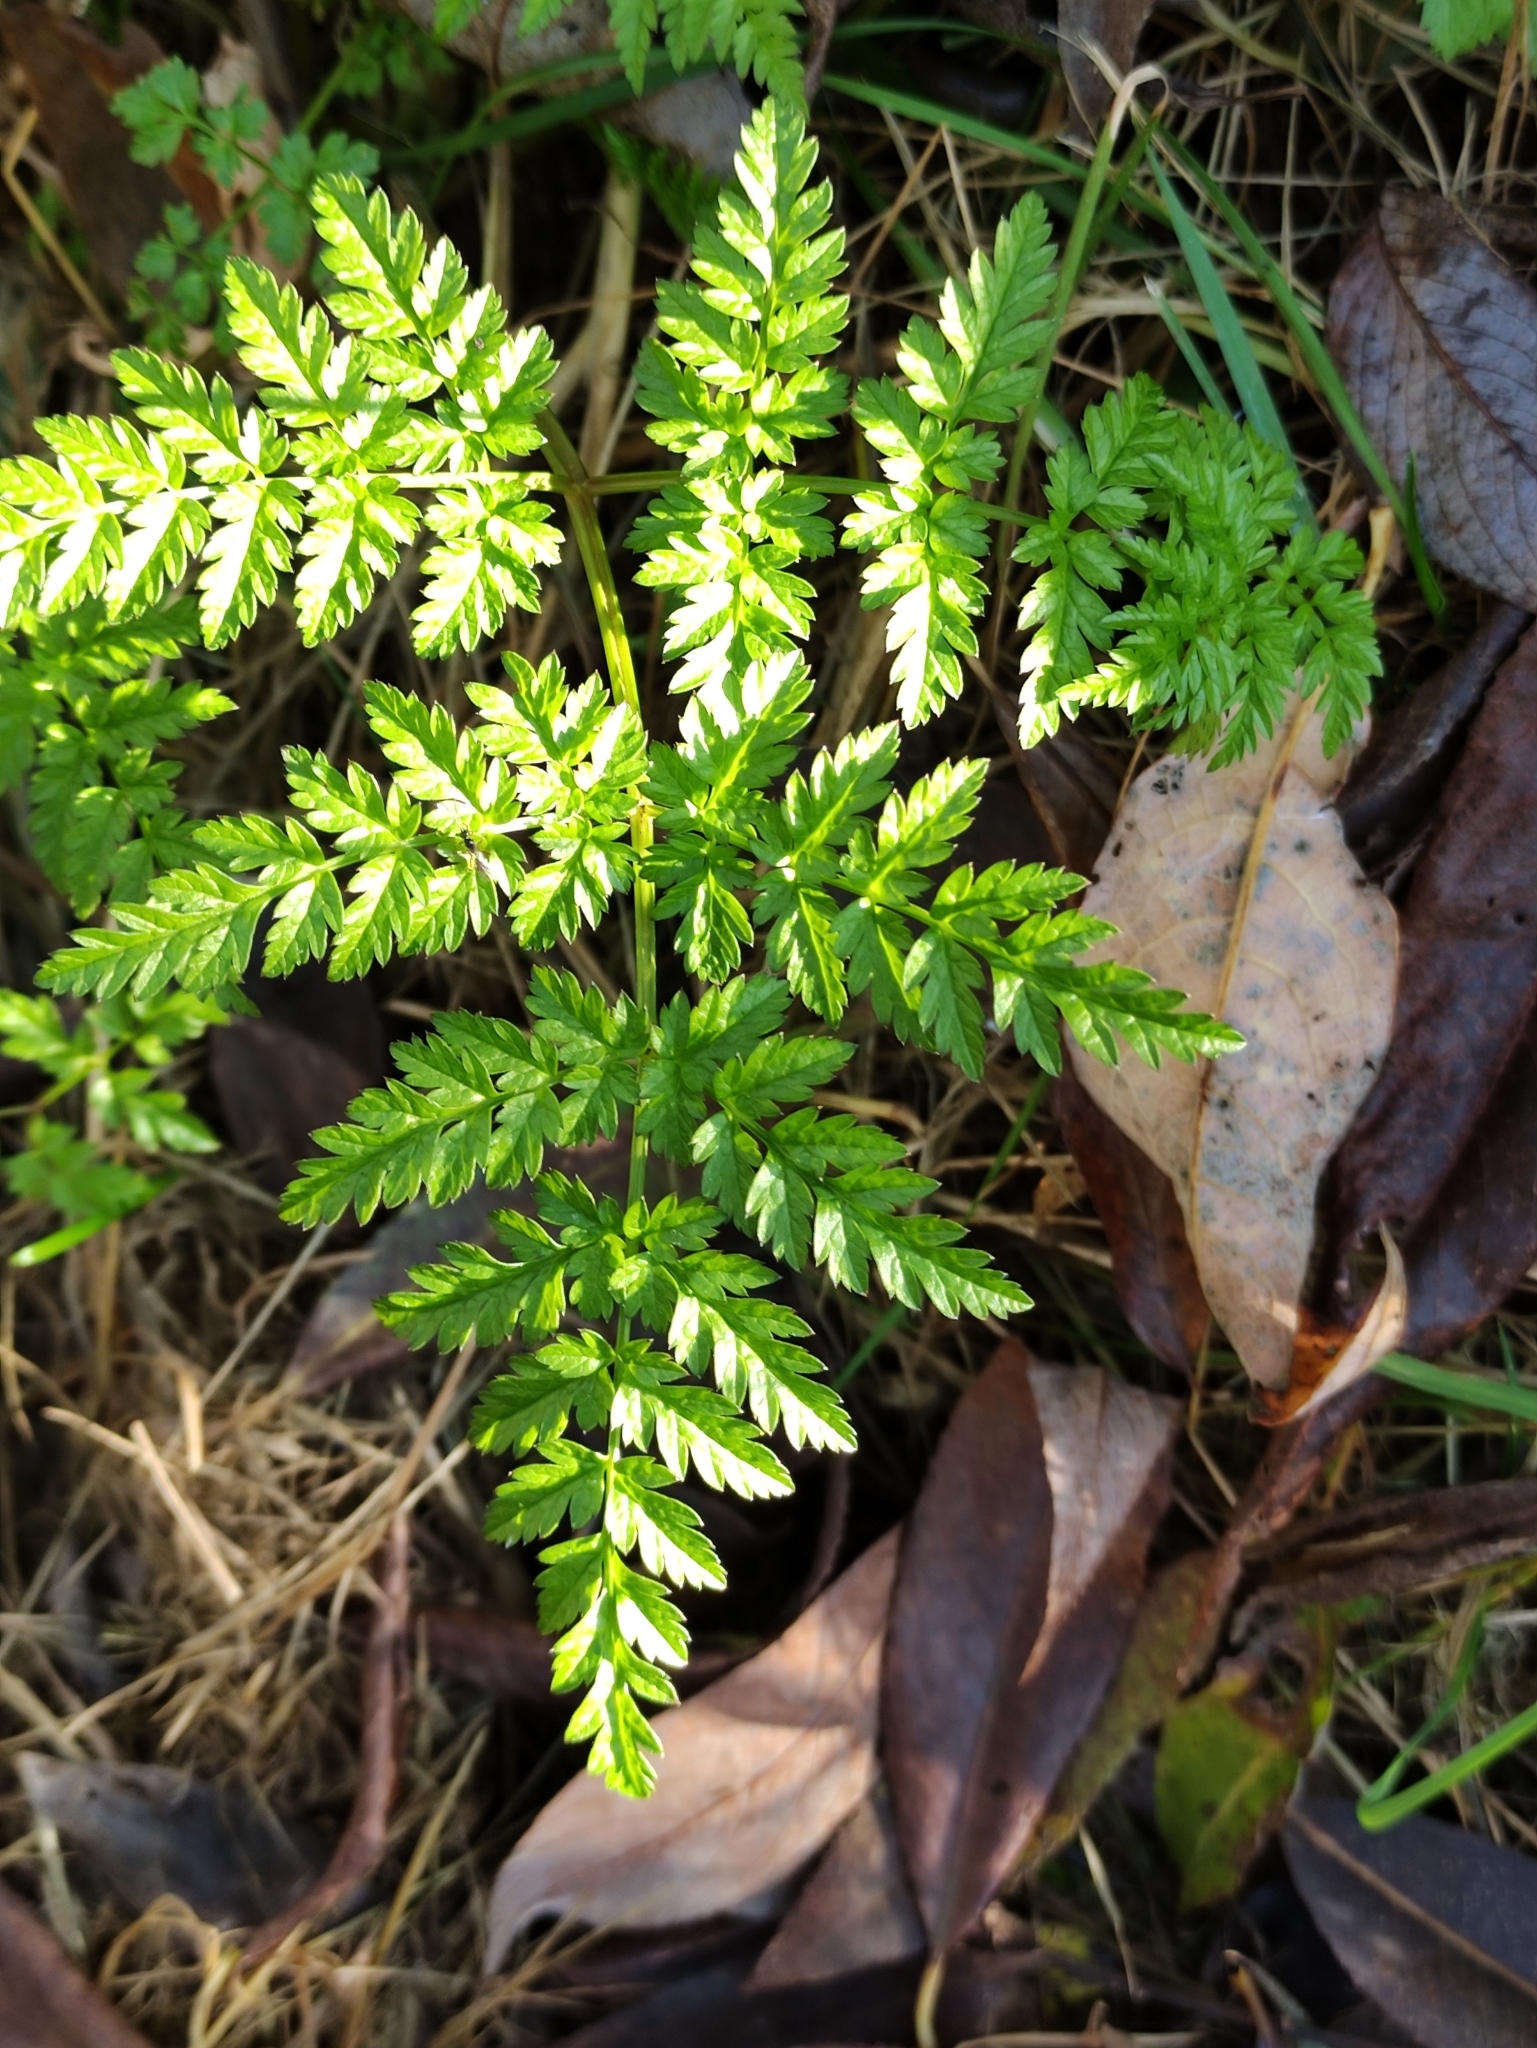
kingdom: Plantae
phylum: Tracheophyta
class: Magnoliopsida
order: Apiales
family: Apiaceae
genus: Anthriscus
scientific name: Anthriscus sylvestris
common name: Cow parsley
